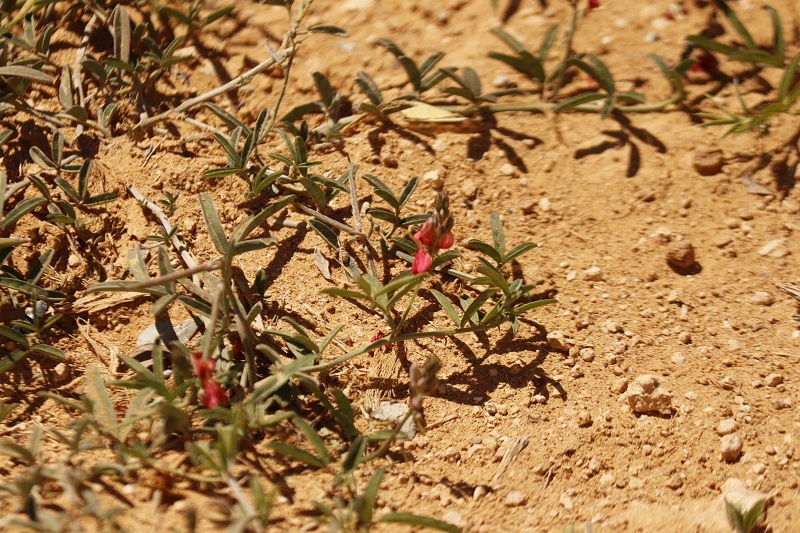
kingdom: Plantae
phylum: Tracheophyta
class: Magnoliopsida
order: Fabales
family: Fabaceae
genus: Indigofera
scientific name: Indigofera disticha
